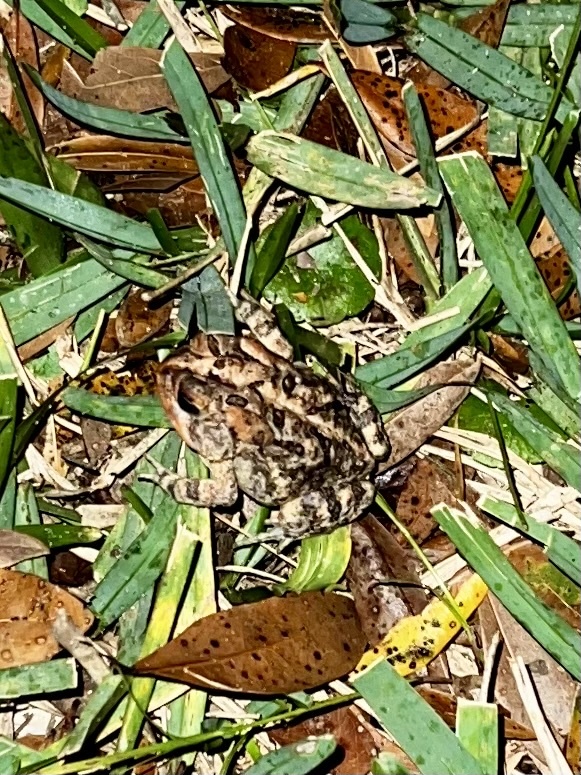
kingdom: Animalia
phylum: Chordata
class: Amphibia
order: Anura
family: Bufonidae
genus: Anaxyrus
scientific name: Anaxyrus terrestris
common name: Southern toad
